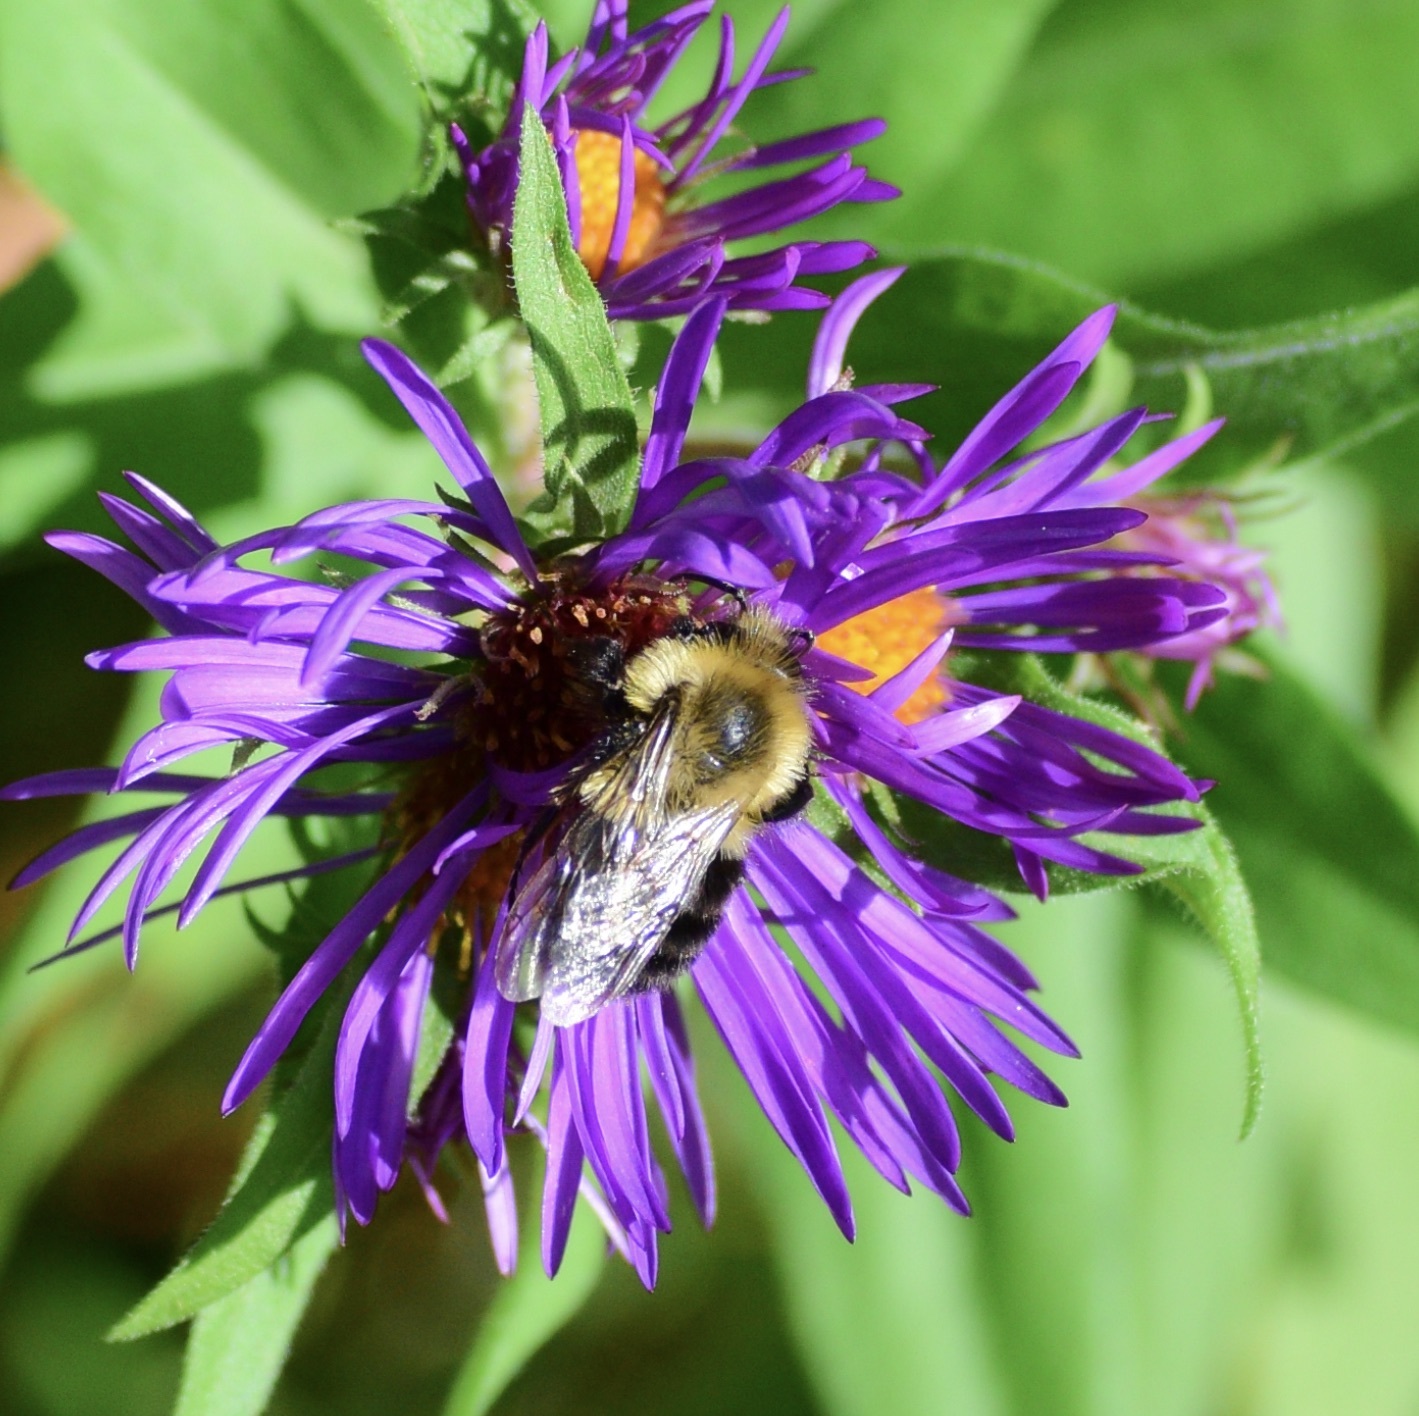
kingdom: Animalia
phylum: Arthropoda
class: Insecta
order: Hymenoptera
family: Apidae
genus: Bombus
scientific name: Bombus impatiens
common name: Common eastern bumble bee
